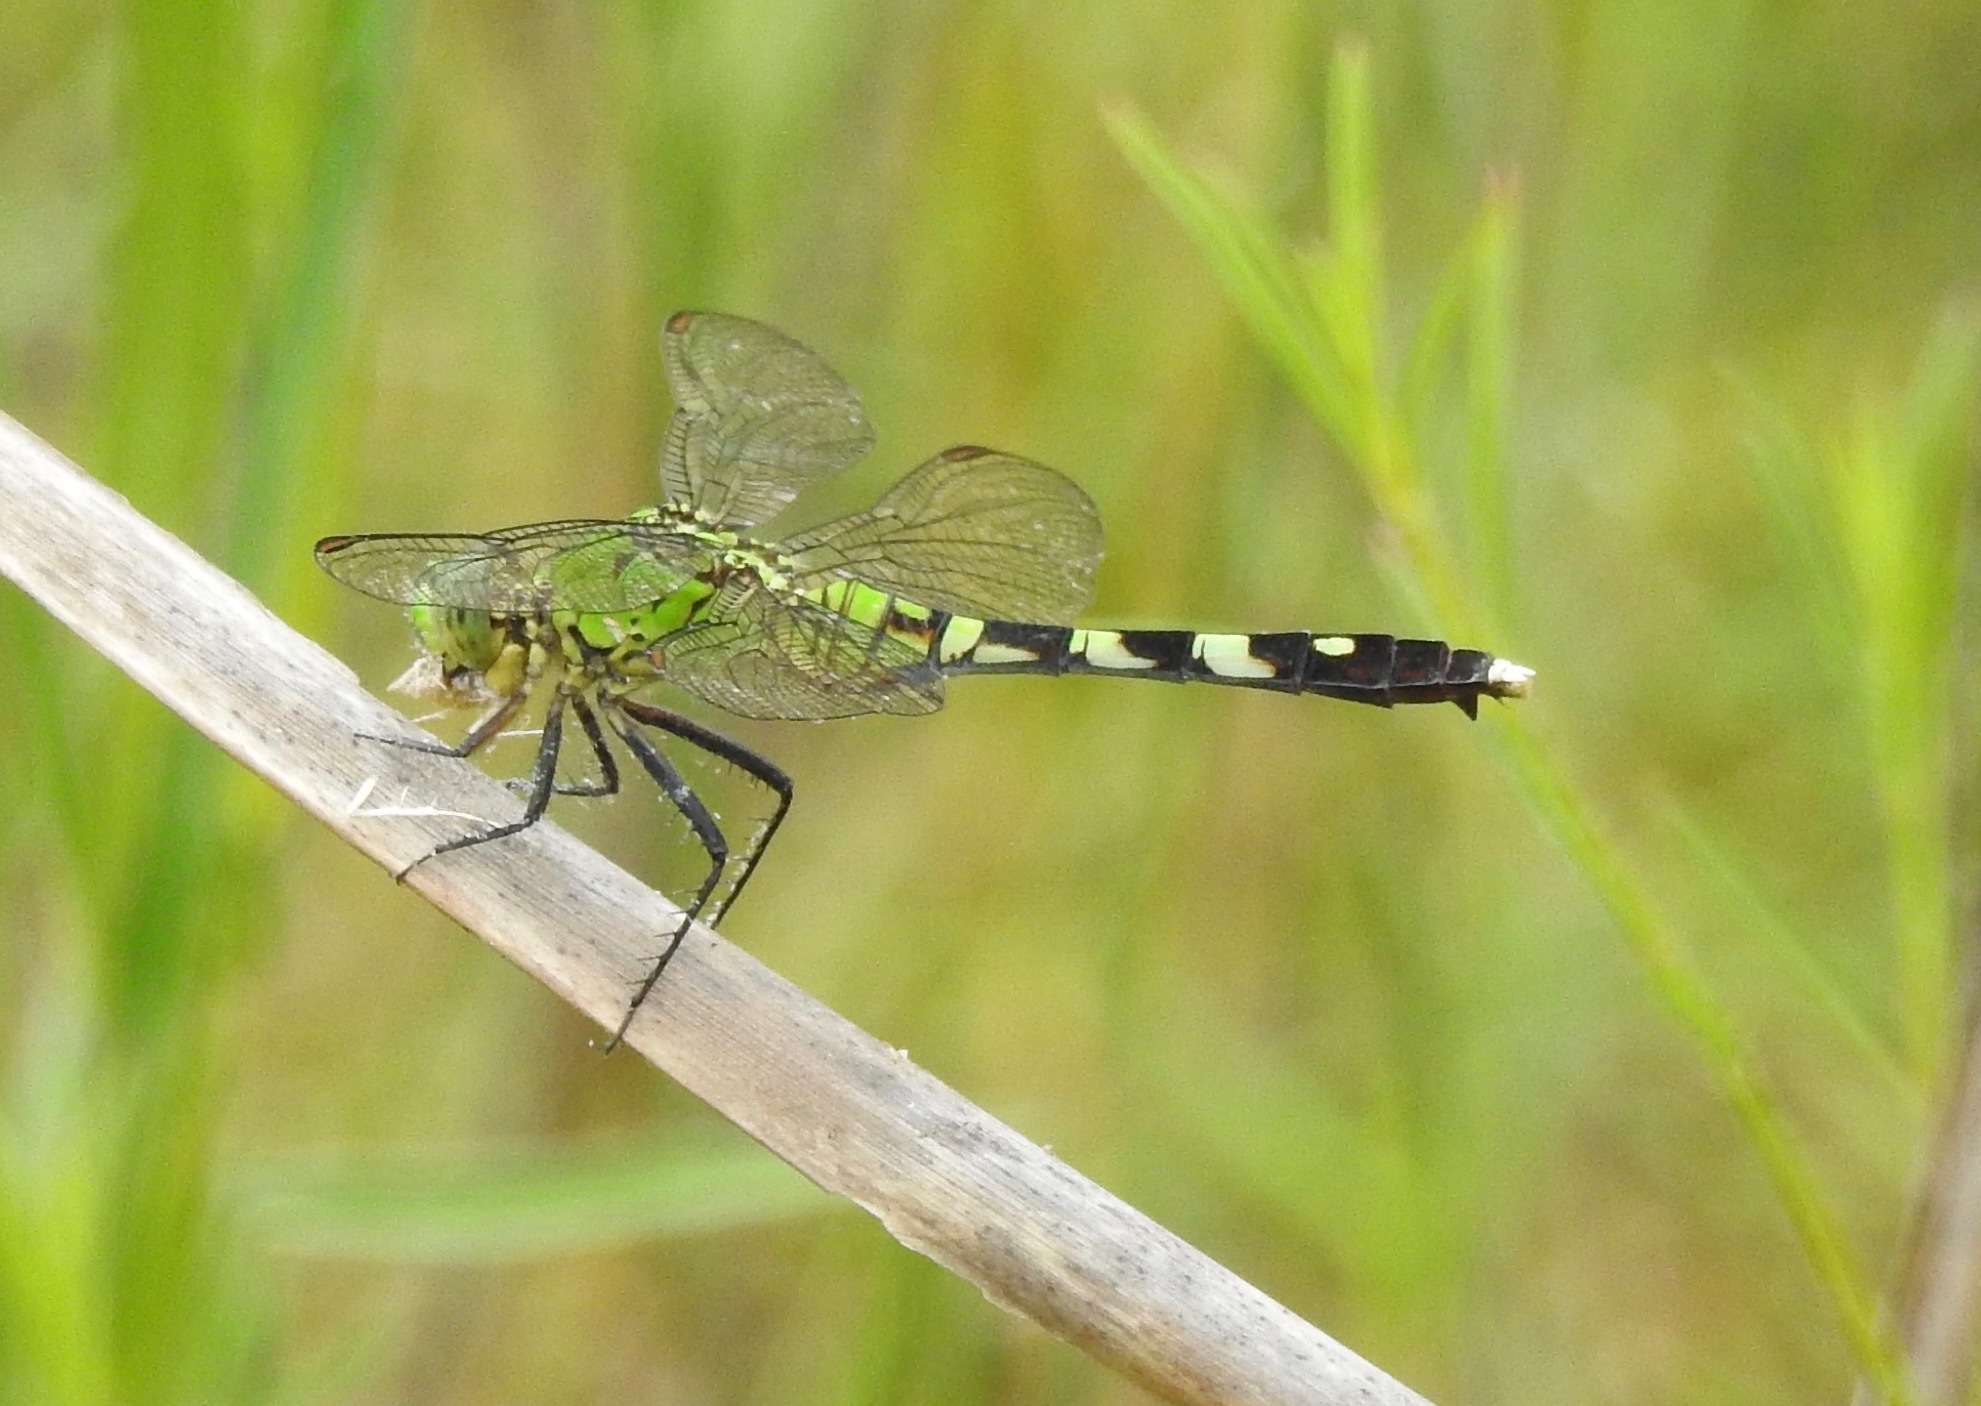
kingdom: Animalia
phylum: Arthropoda
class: Insecta
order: Odonata
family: Libellulidae
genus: Erythemis
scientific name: Erythemis simplicicollis
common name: Eastern pondhawk
